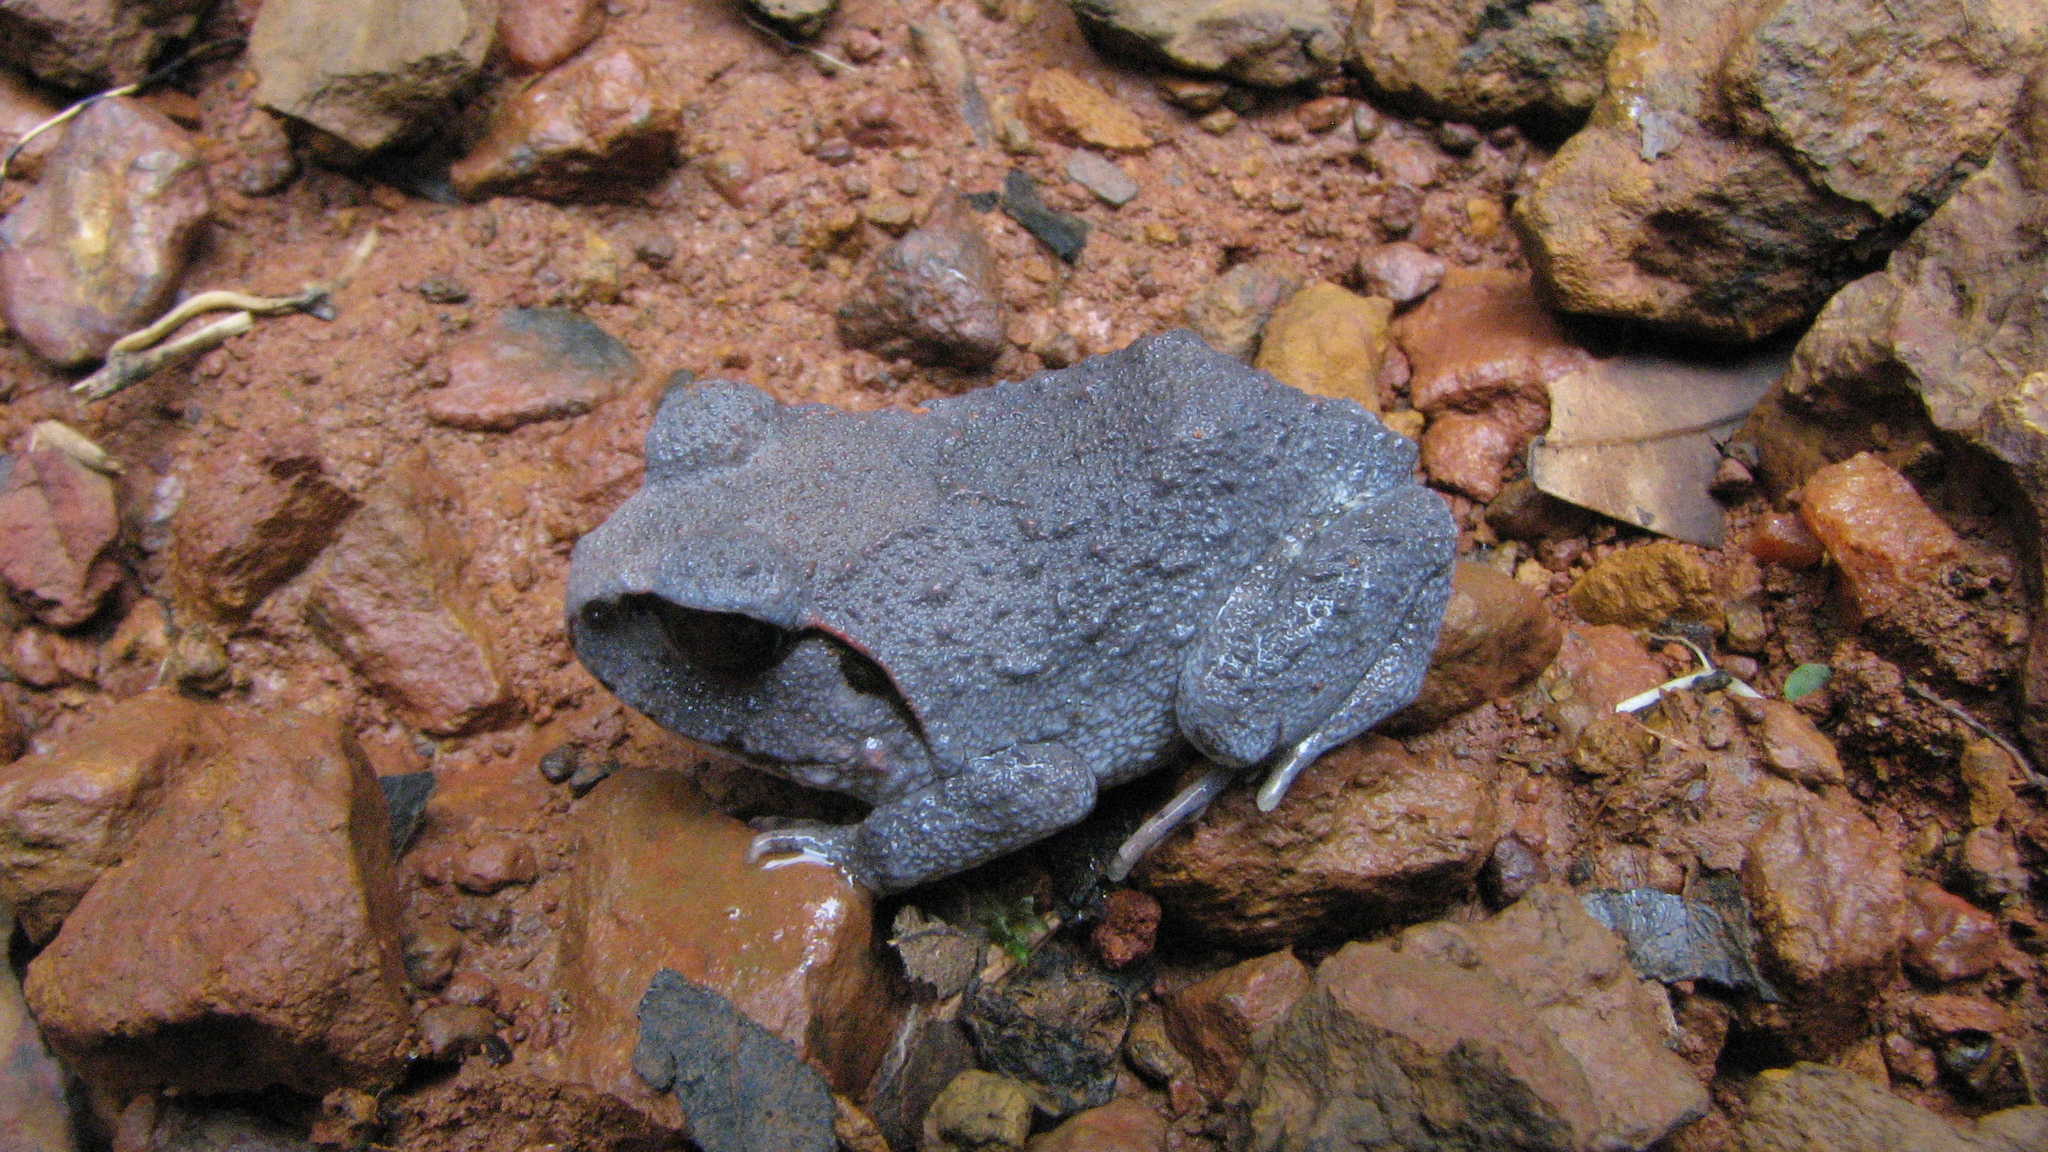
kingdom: Animalia
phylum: Chordata
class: Amphibia
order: Anura
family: Dicroglossidae
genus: Sphaerotheca
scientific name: Sphaerotheca dobsonii
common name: Mangalore bullfrog
